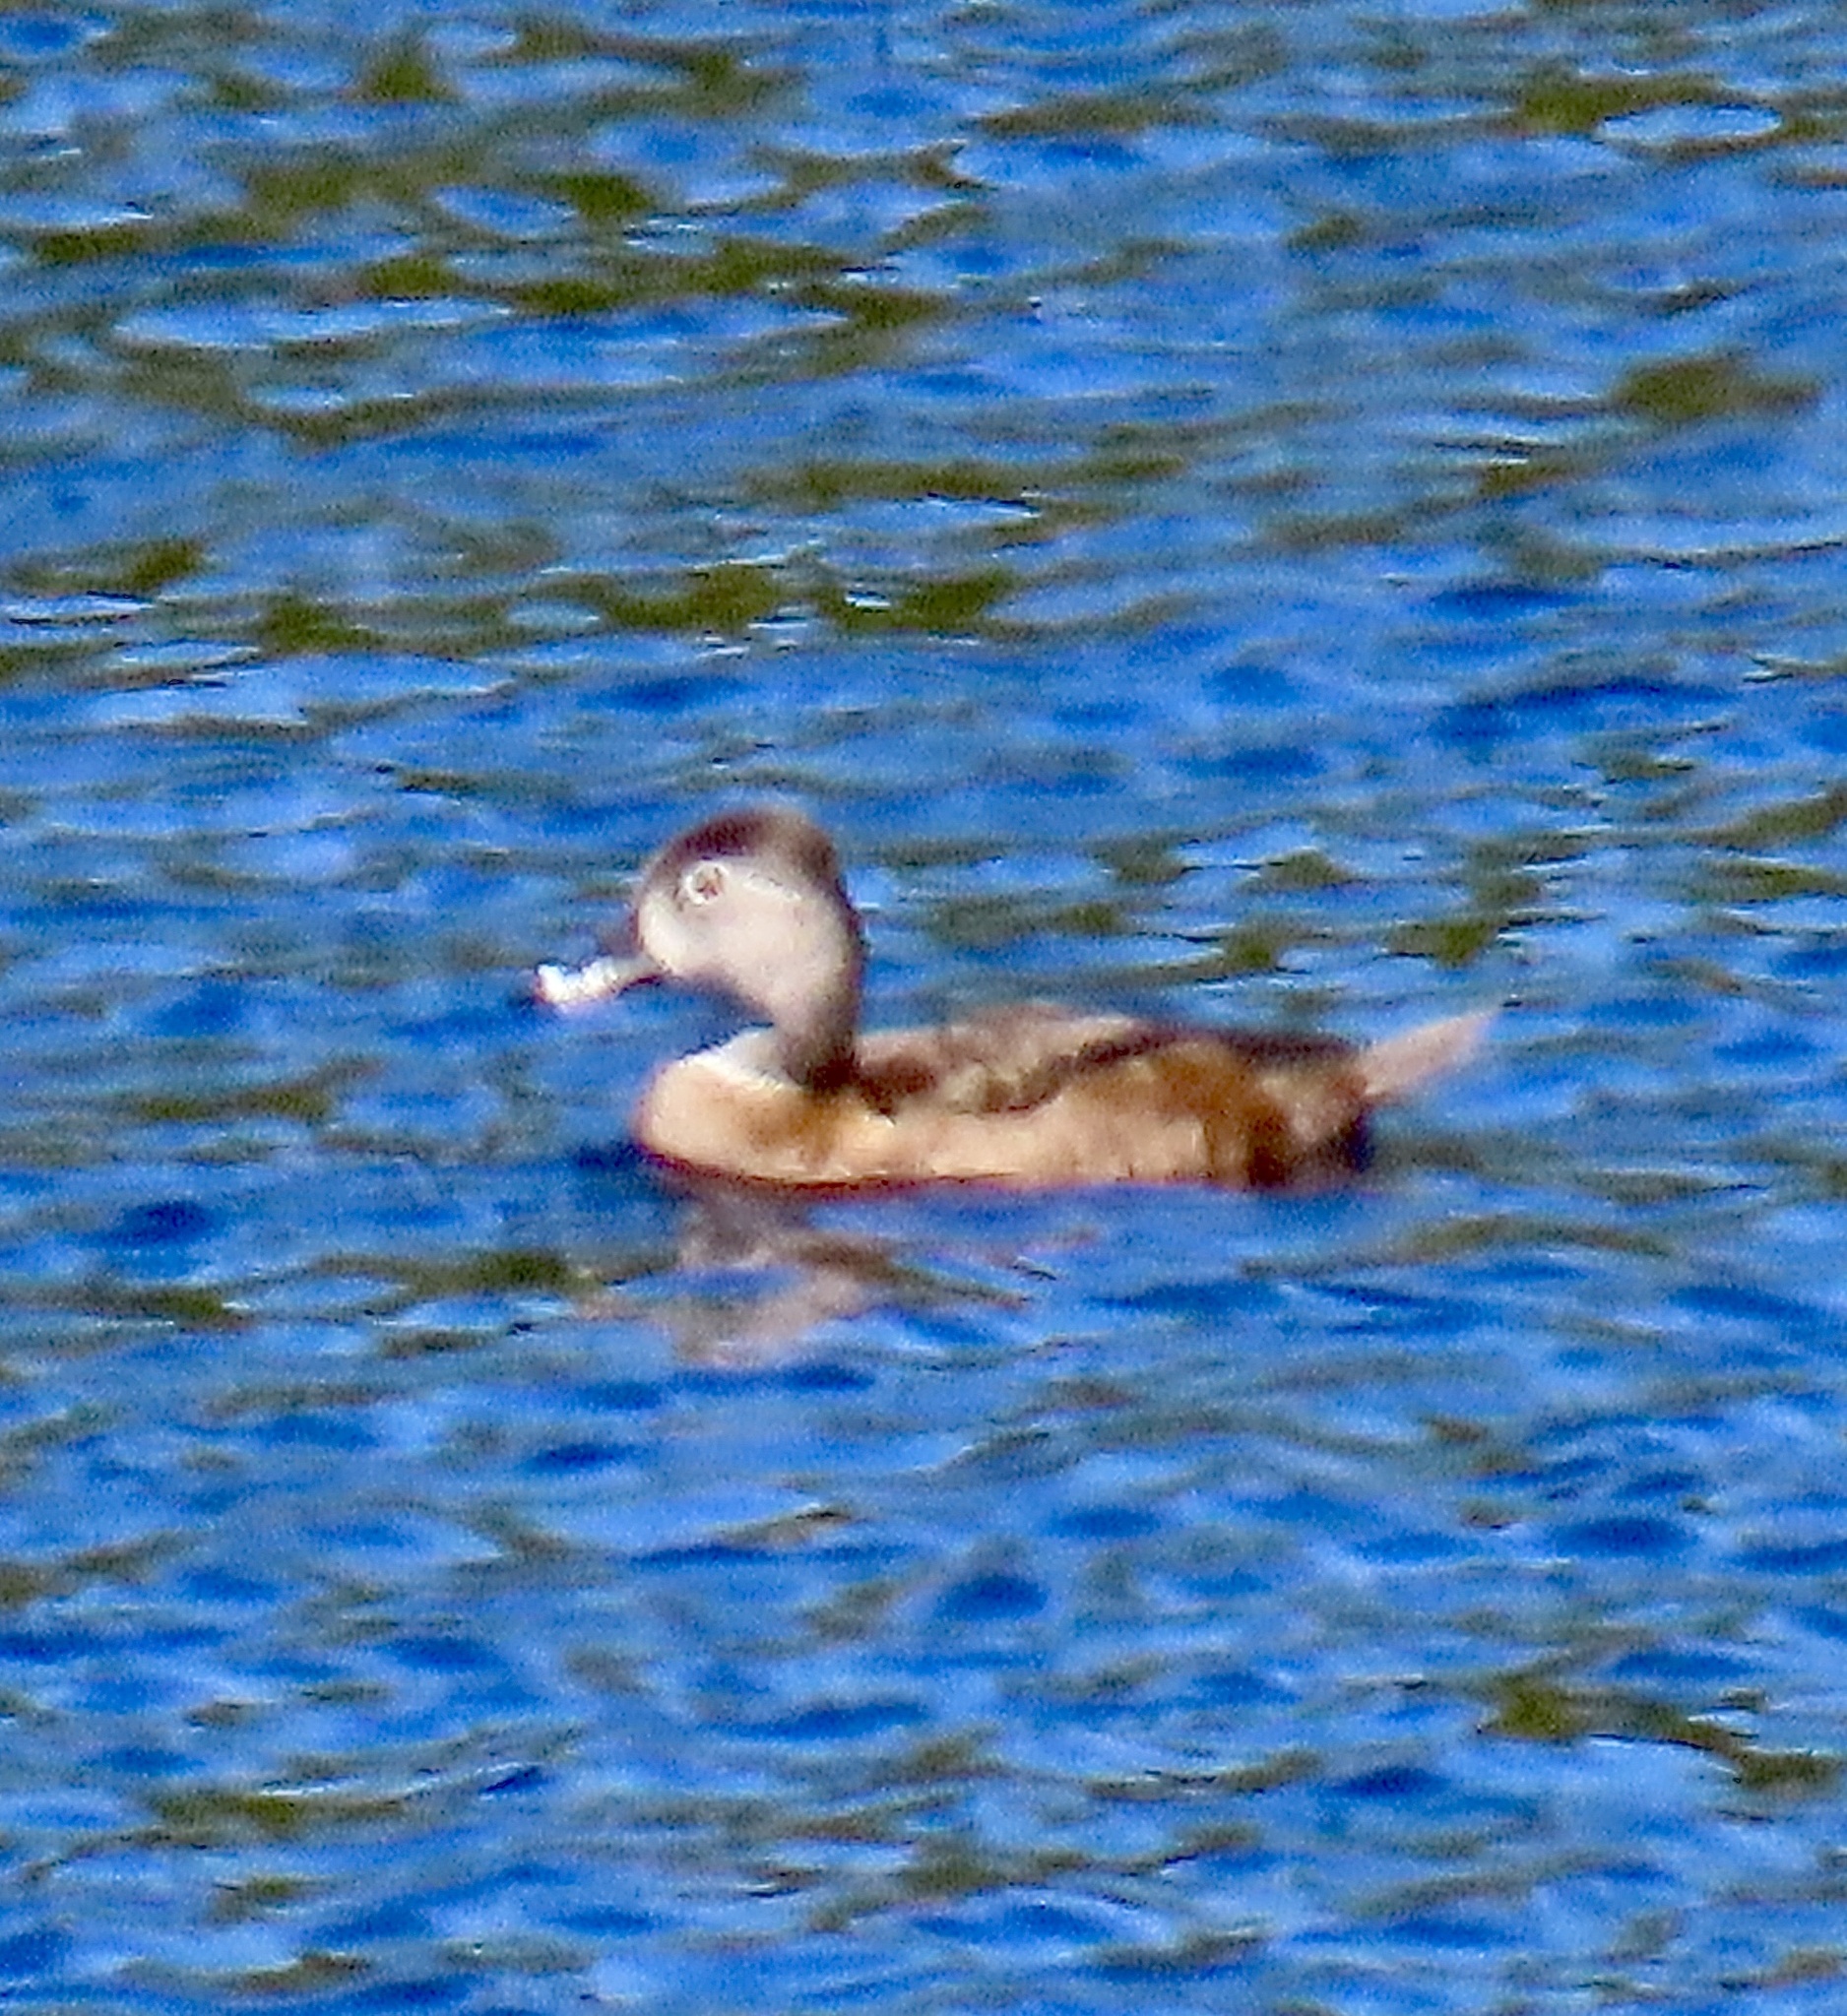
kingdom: Animalia
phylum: Chordata
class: Aves
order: Anseriformes
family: Anatidae
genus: Aythya
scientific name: Aythya collaris
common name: Ring-necked duck
